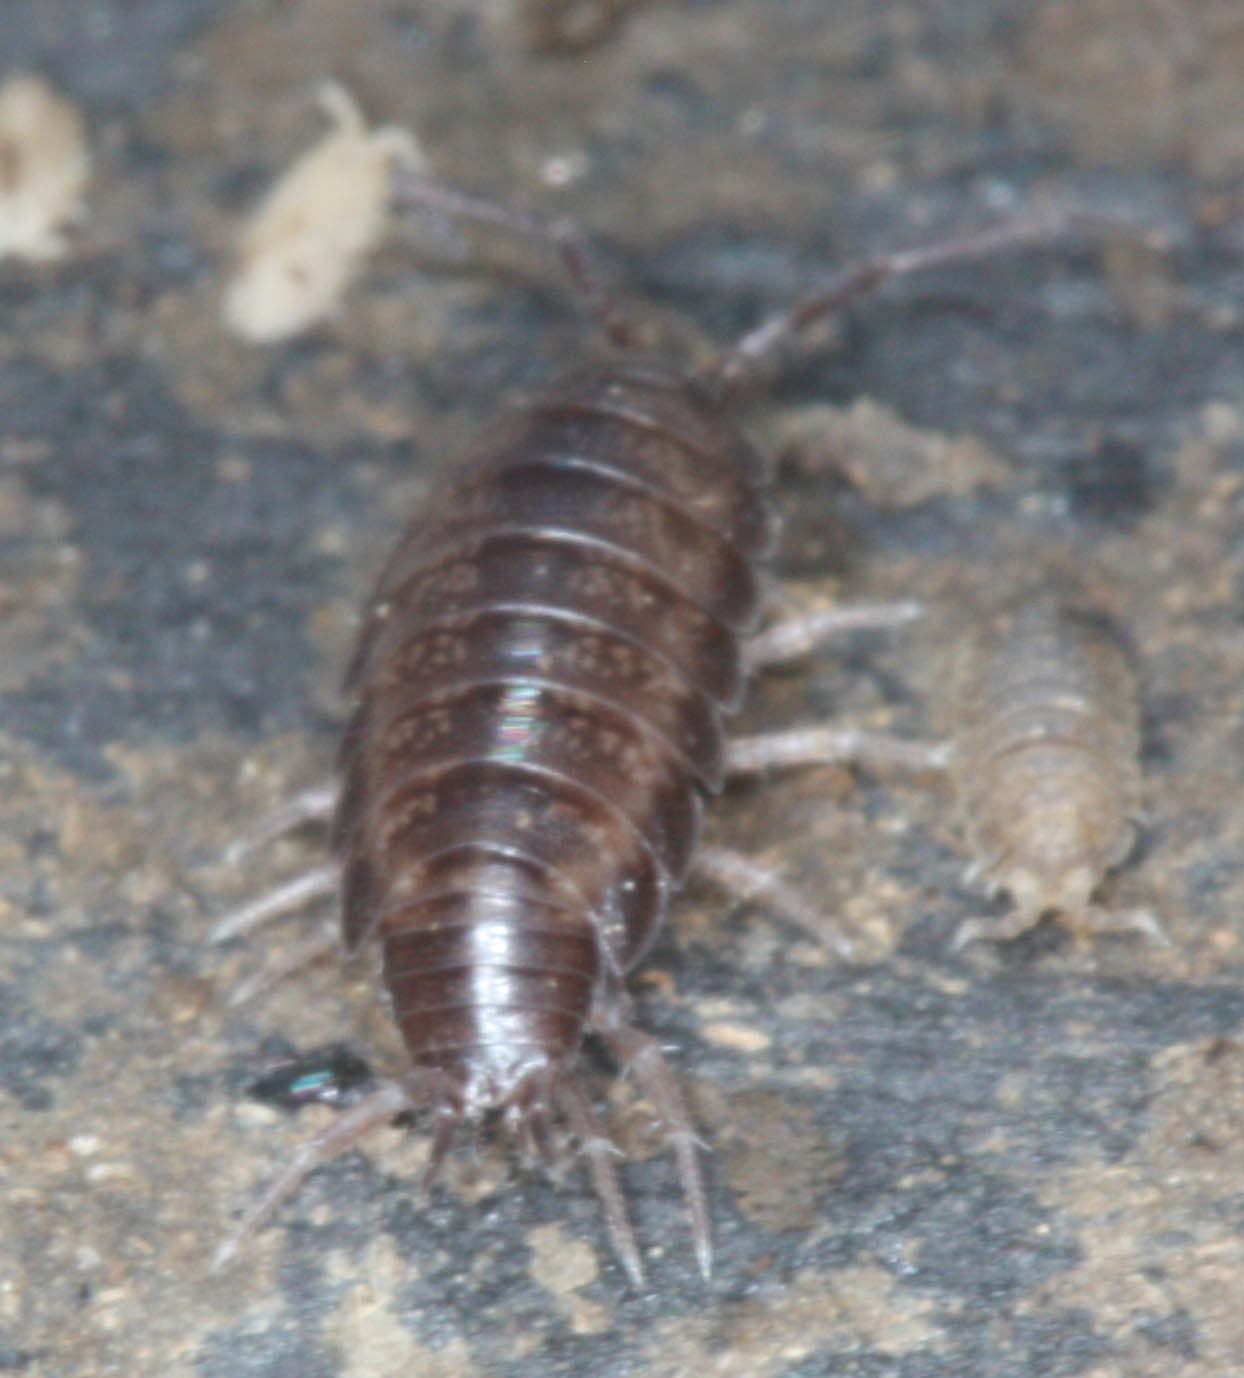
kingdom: Animalia
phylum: Arthropoda
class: Malacostraca
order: Isopoda
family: Halophilosciidae
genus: Littorophiloscia
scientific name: Littorophiloscia richardsonae
